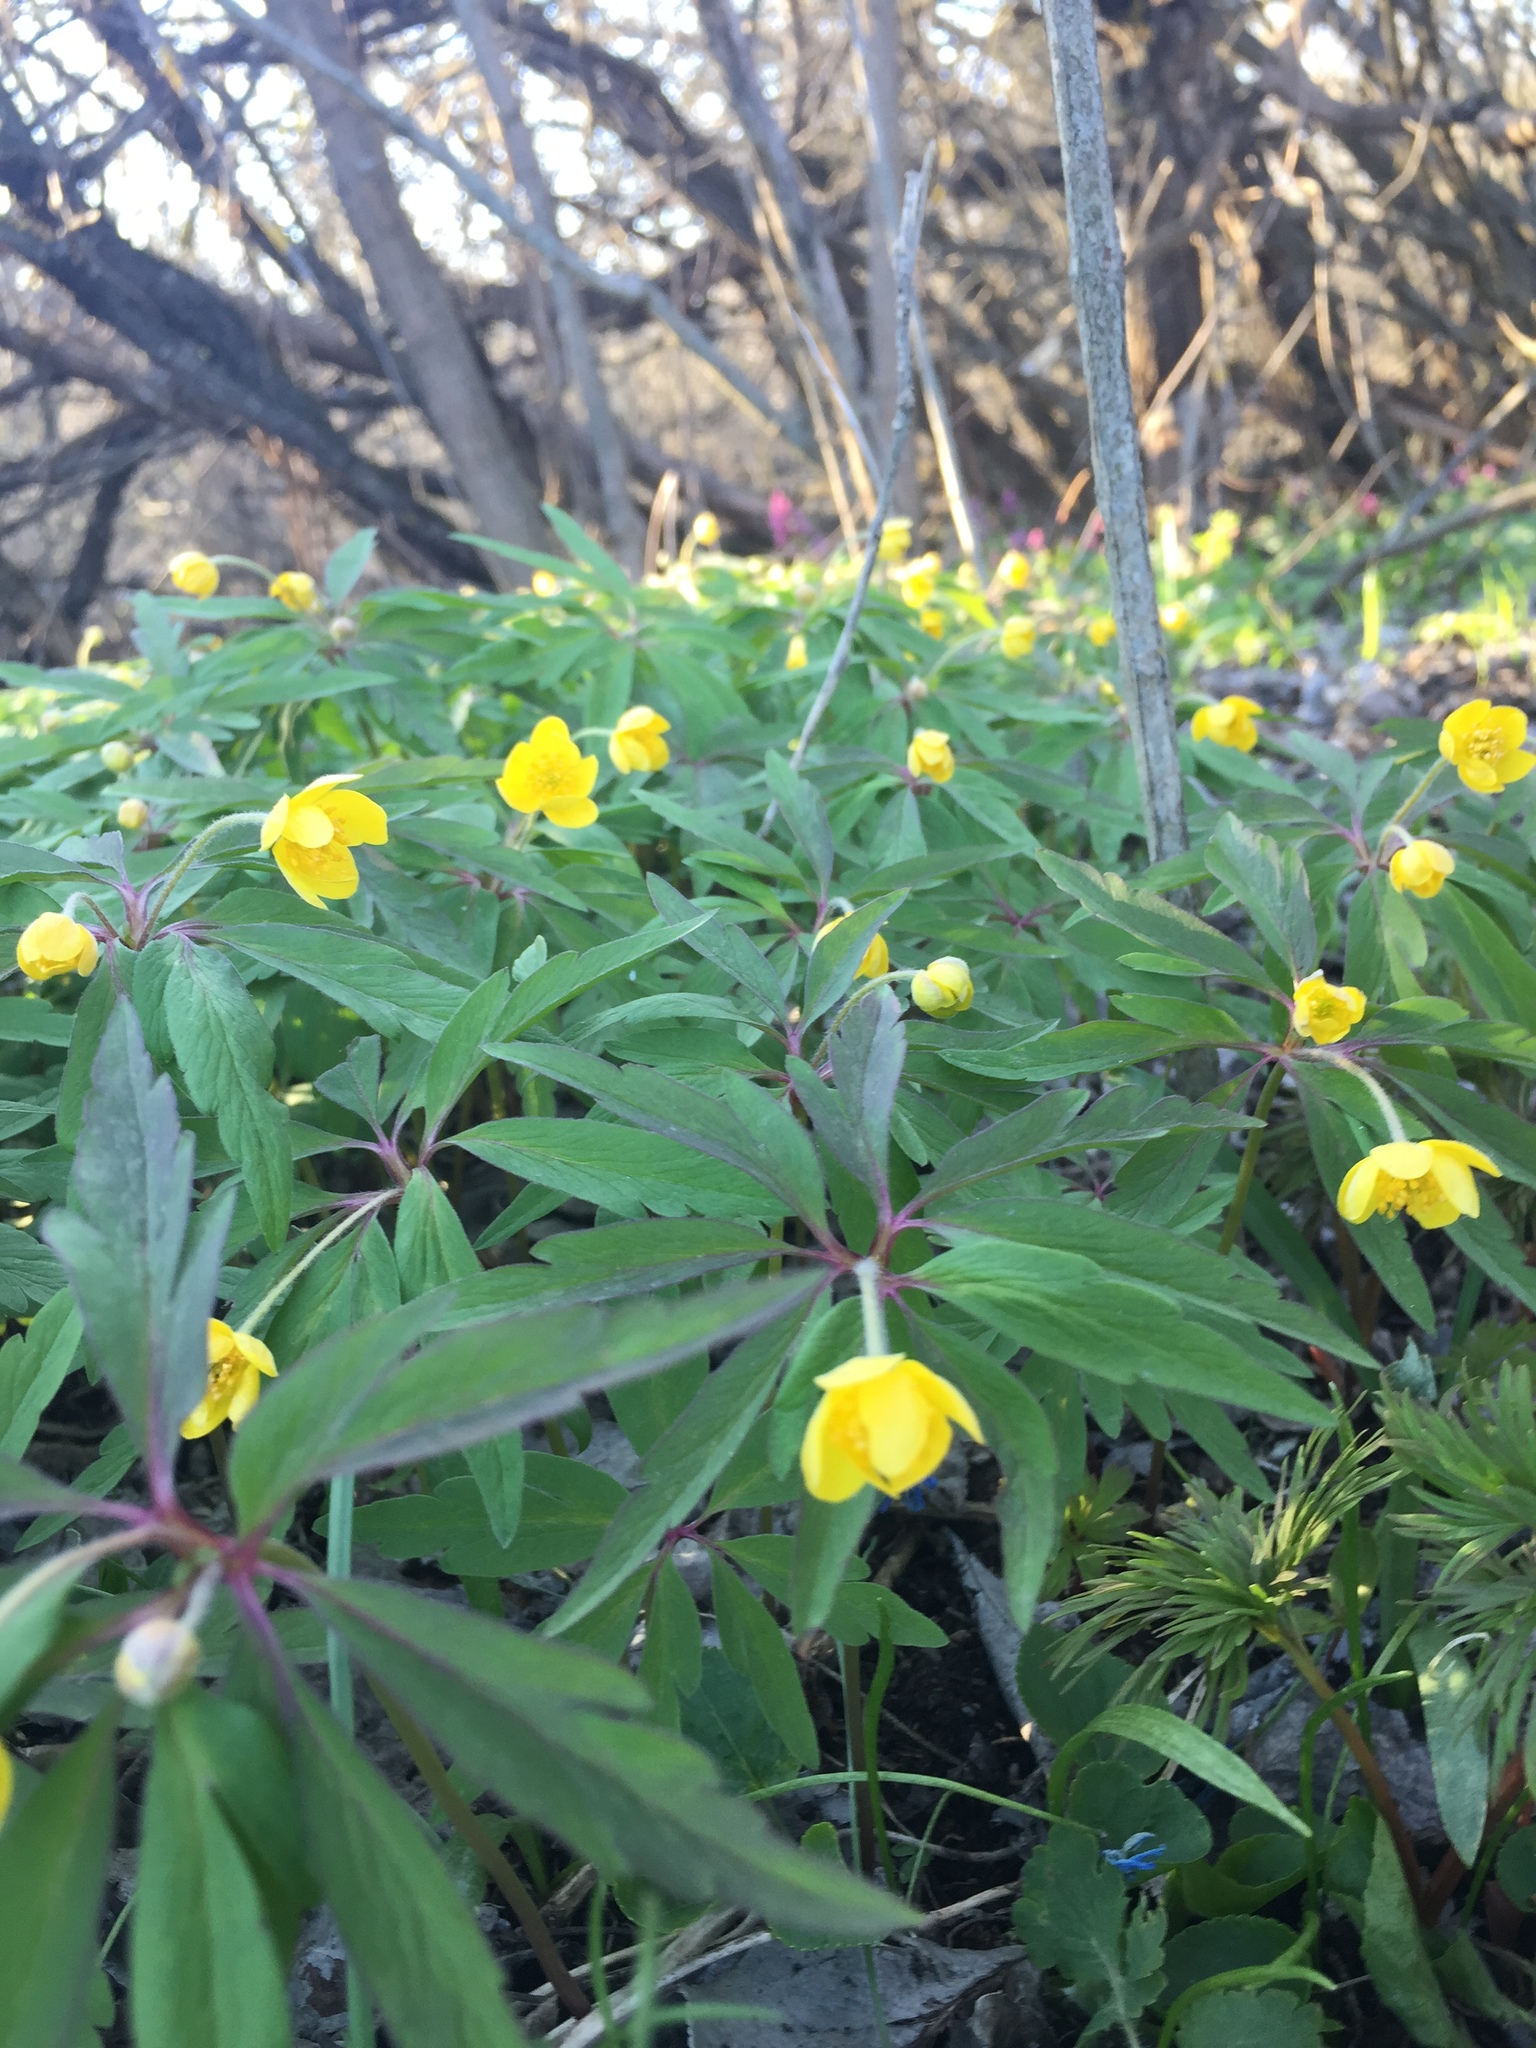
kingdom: Plantae
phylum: Tracheophyta
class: Magnoliopsida
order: Ranunculales
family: Ranunculaceae
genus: Anemone
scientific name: Anemone ranunculoides
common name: Yellow anemone
